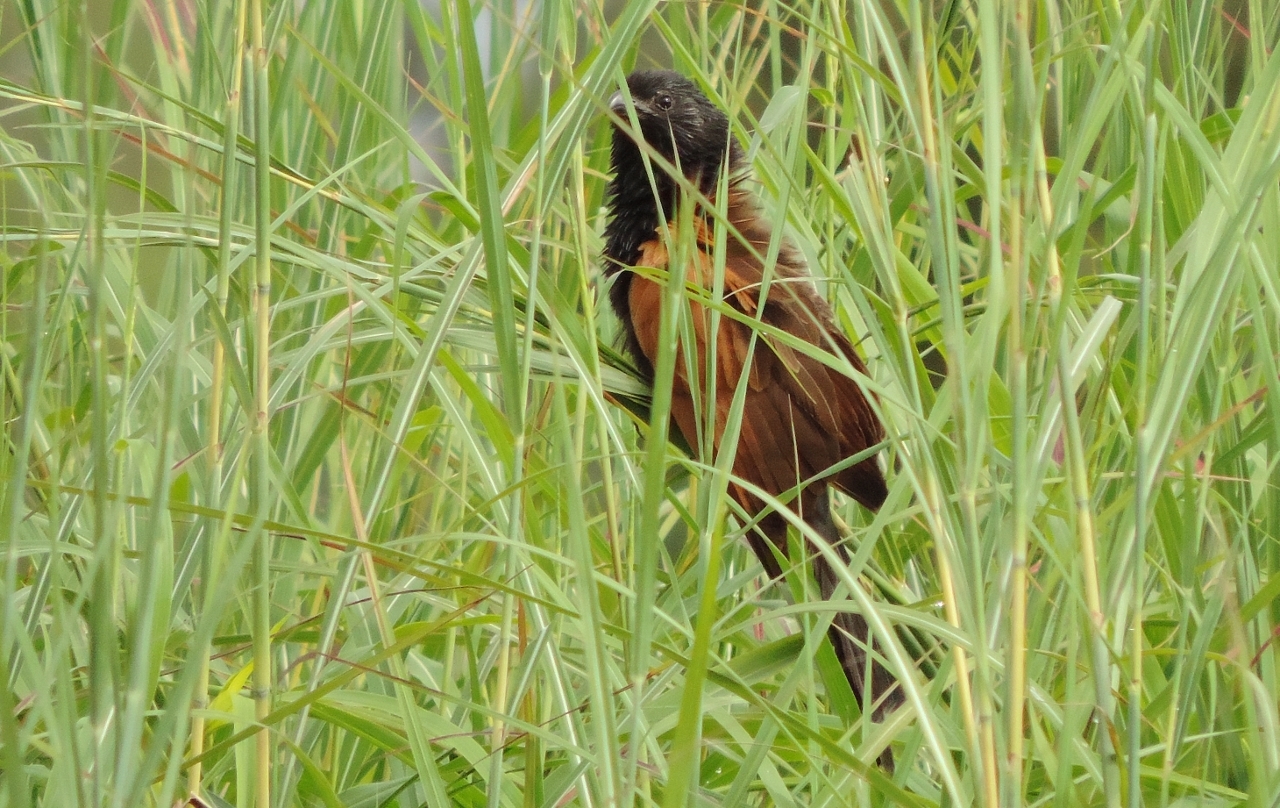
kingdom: Animalia
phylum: Chordata
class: Aves
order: Cuculiformes
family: Cuculidae
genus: Centropus
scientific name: Centropus grillii
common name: Black coucal
